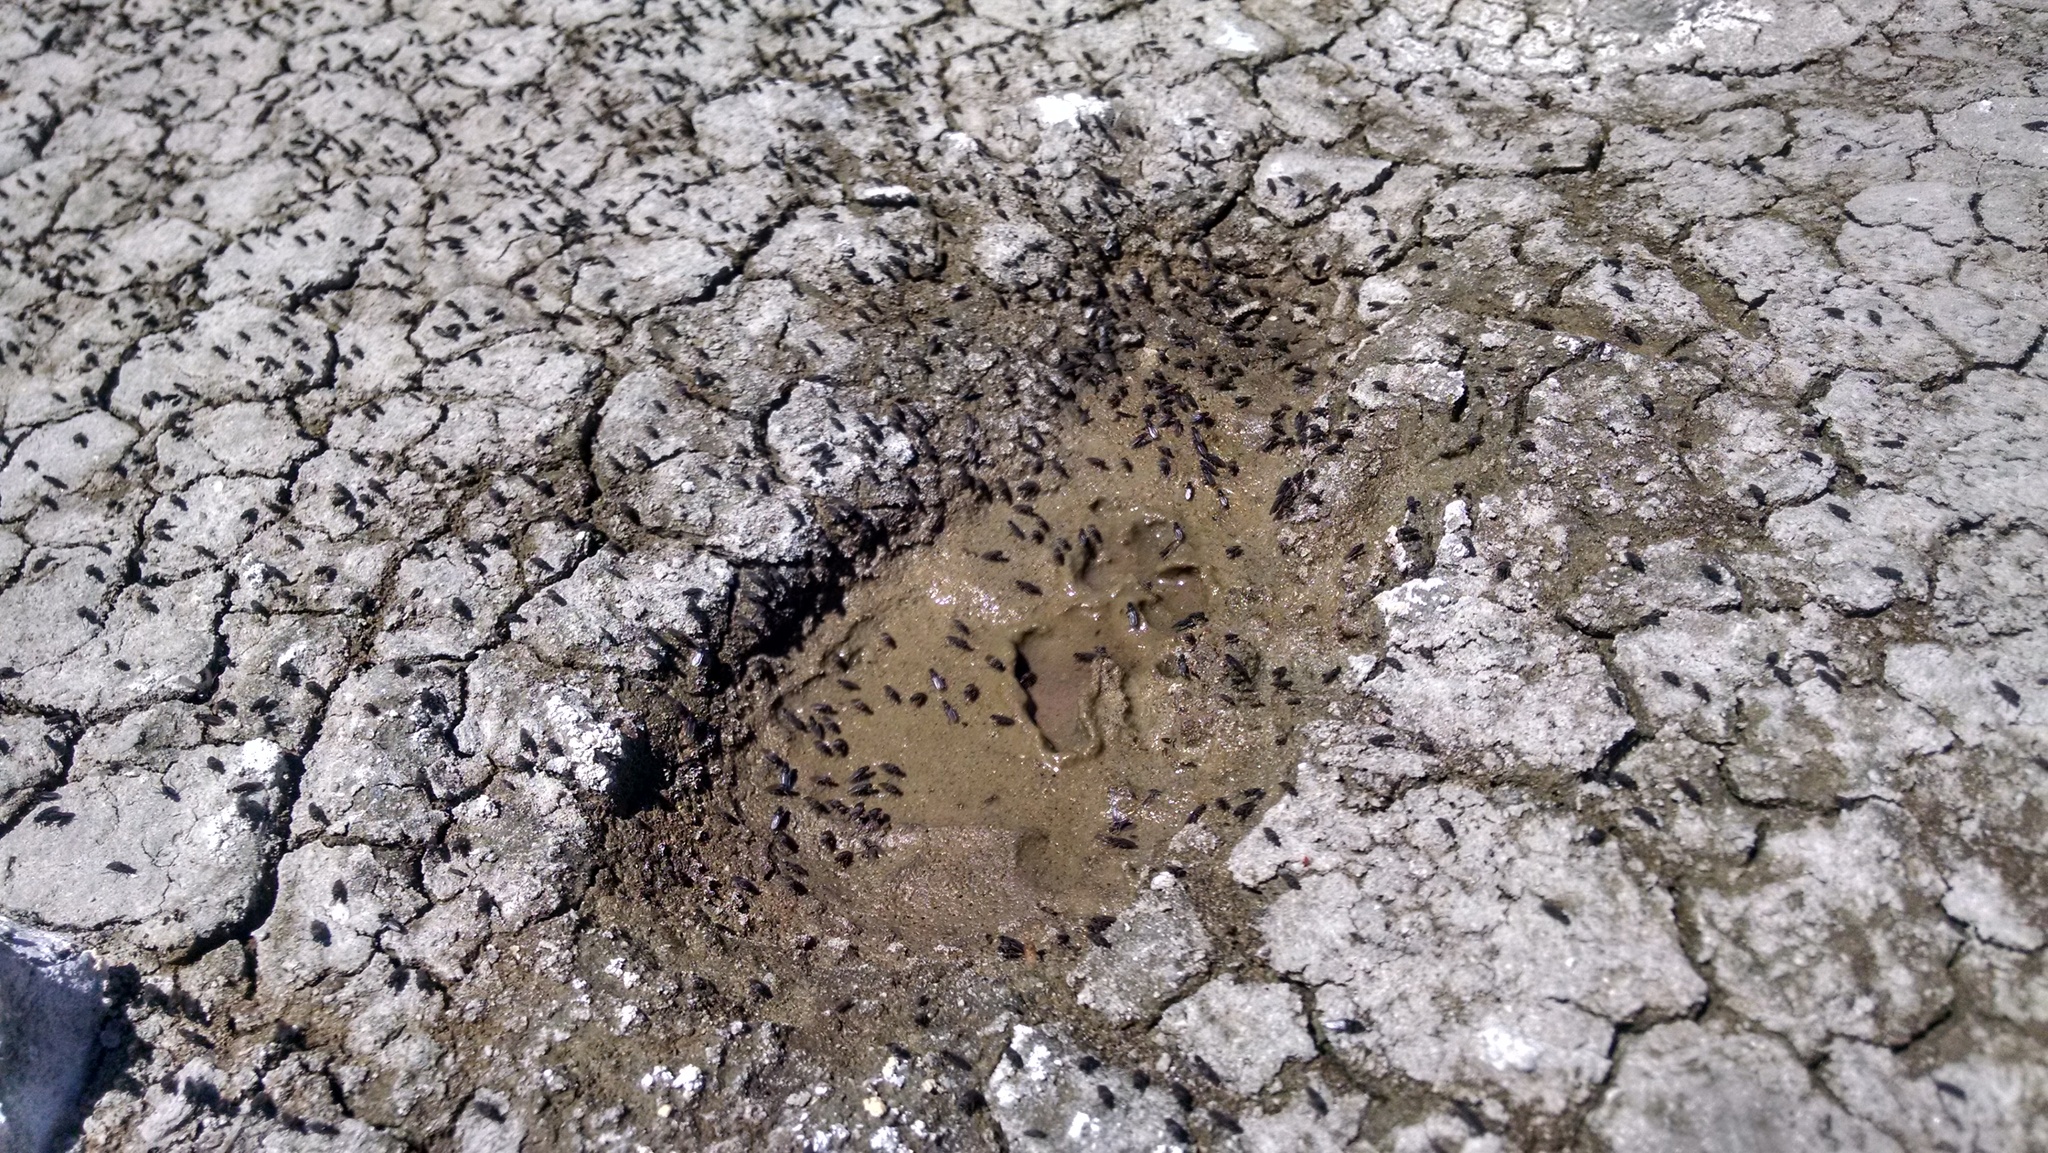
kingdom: Animalia
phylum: Arthropoda
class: Insecta
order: Diptera
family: Ephydridae
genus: Cirrula
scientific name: Cirrula hians
